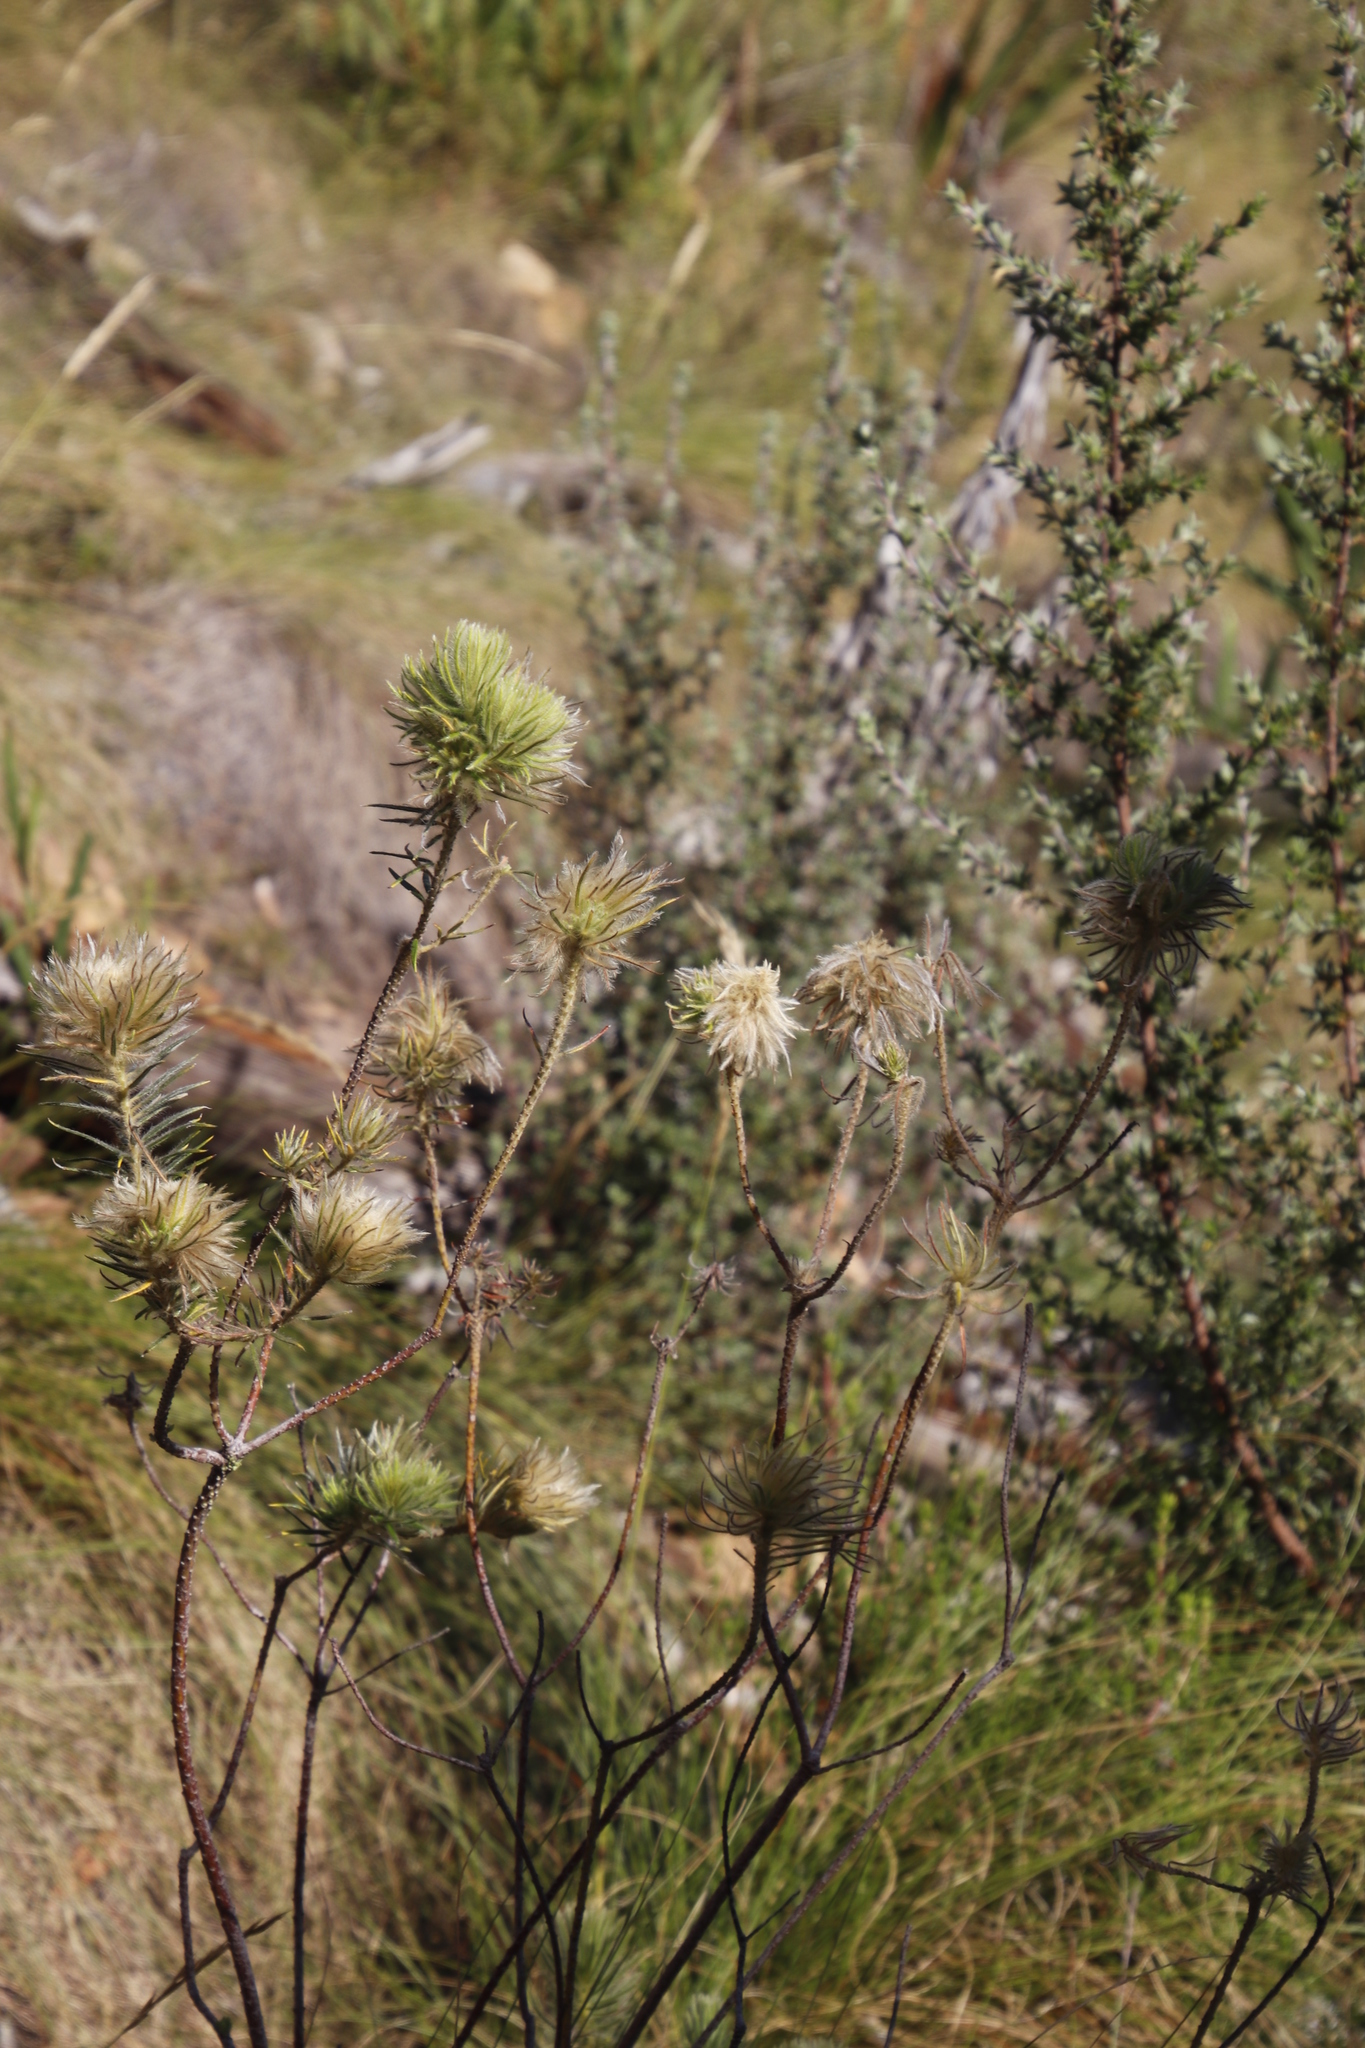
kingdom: Plantae
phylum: Tracheophyta
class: Magnoliopsida
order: Rosales
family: Rhamnaceae
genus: Phylica
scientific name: Phylica pubescens
